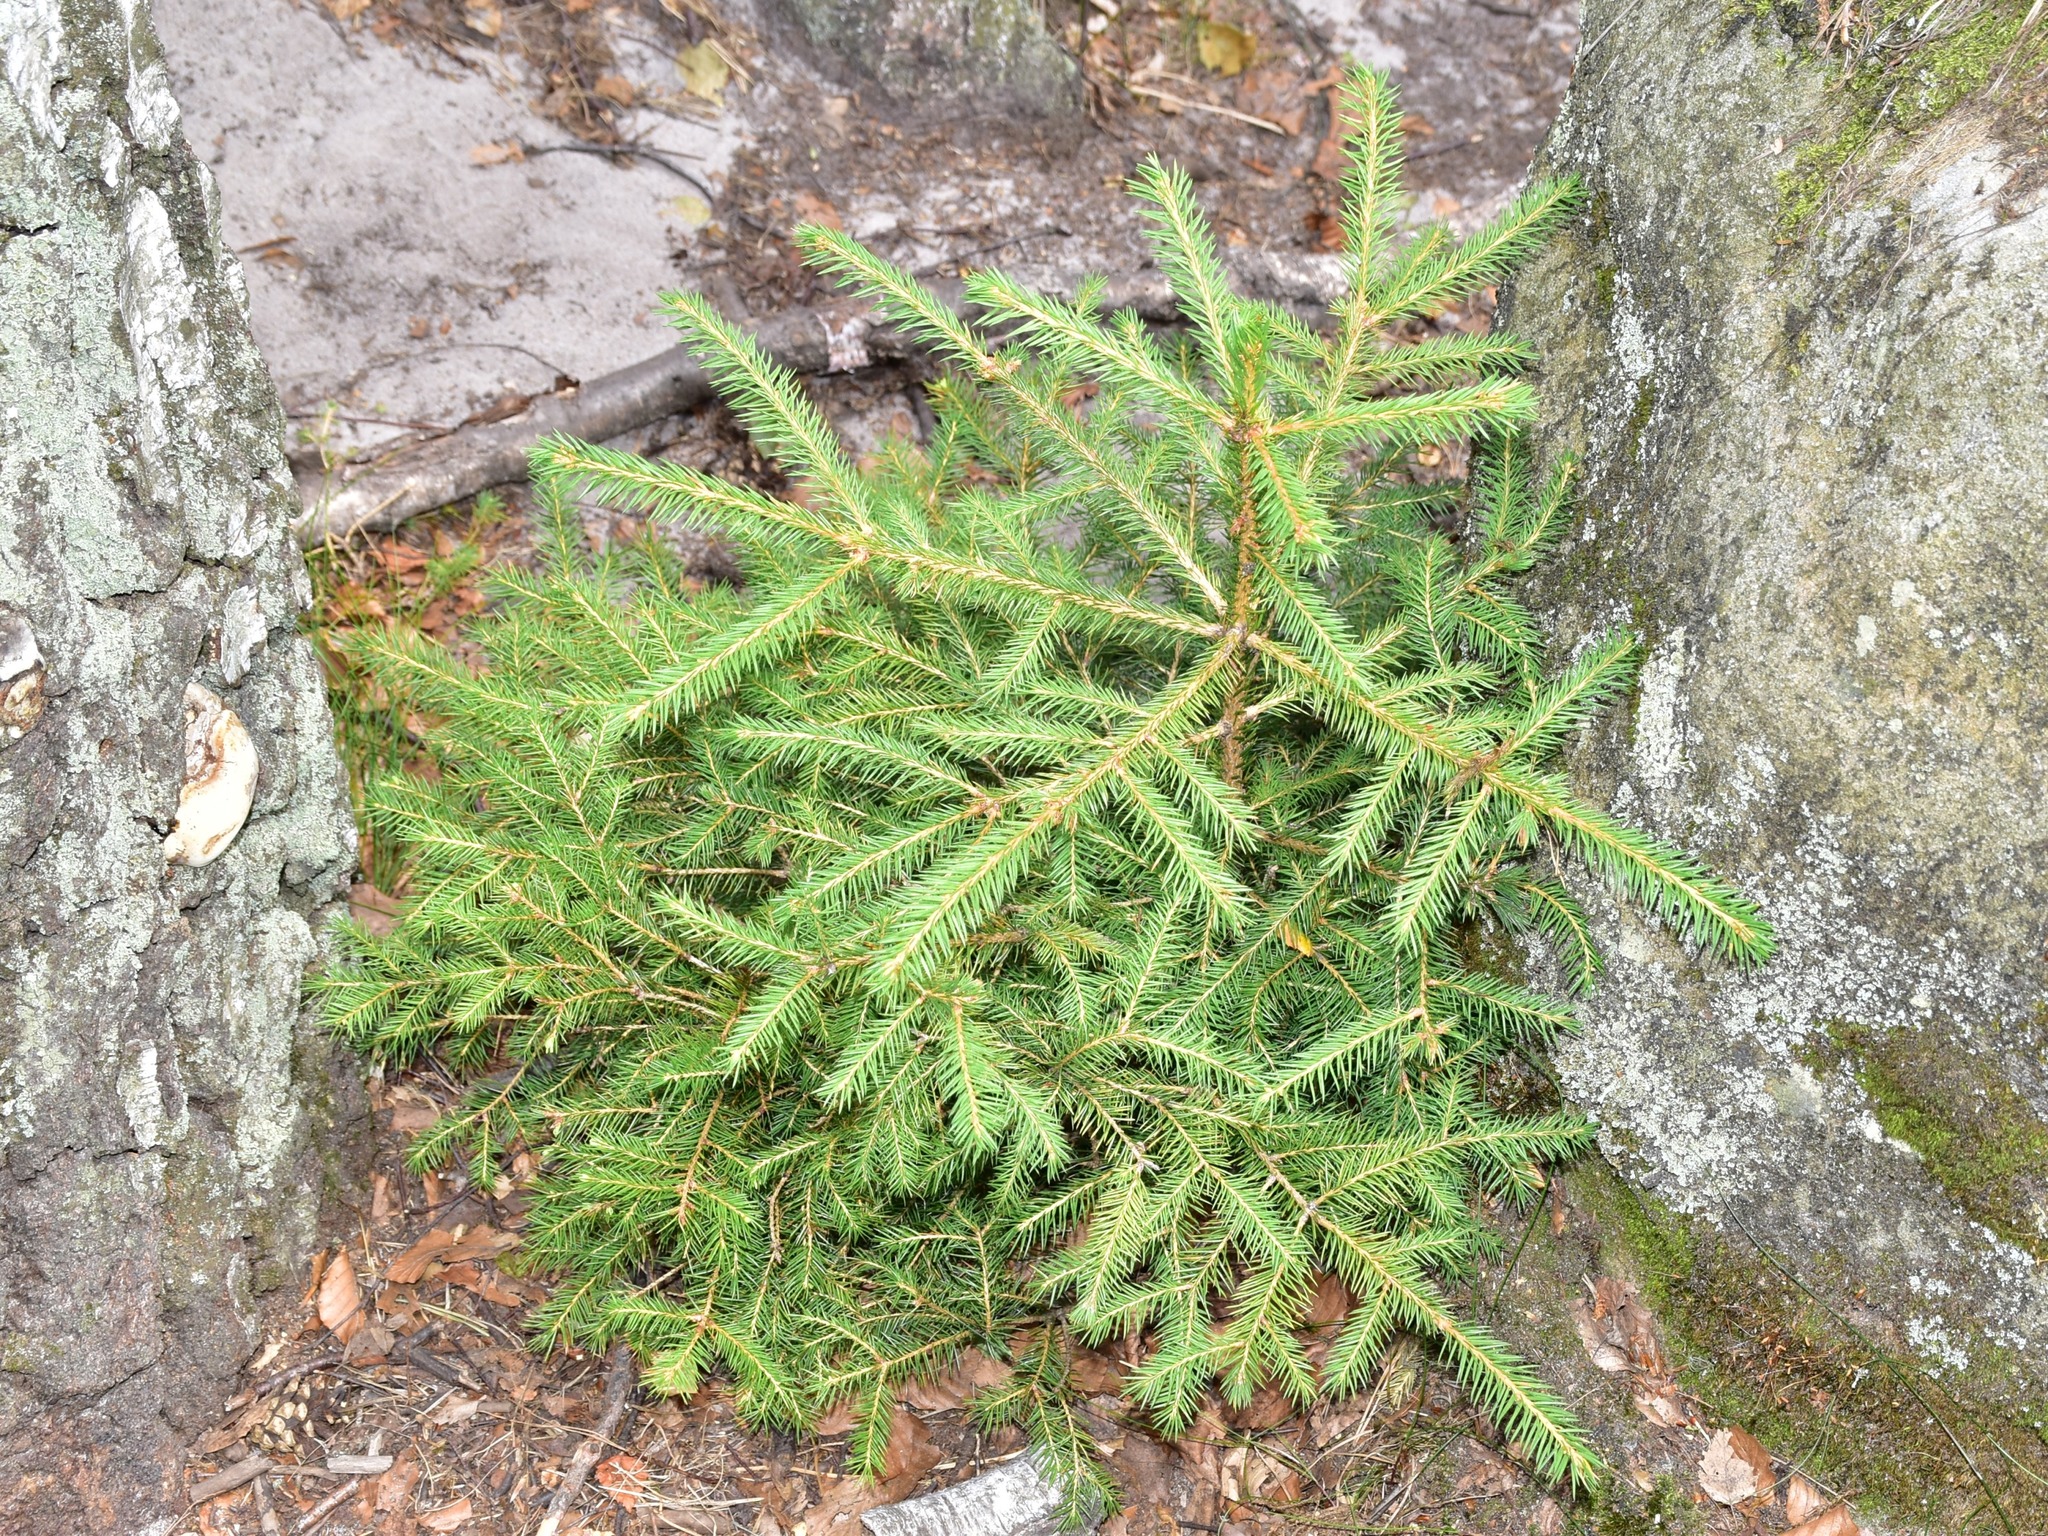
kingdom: Plantae
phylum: Tracheophyta
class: Pinopsida
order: Pinales
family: Pinaceae
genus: Picea
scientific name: Picea abies
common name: Norway spruce
